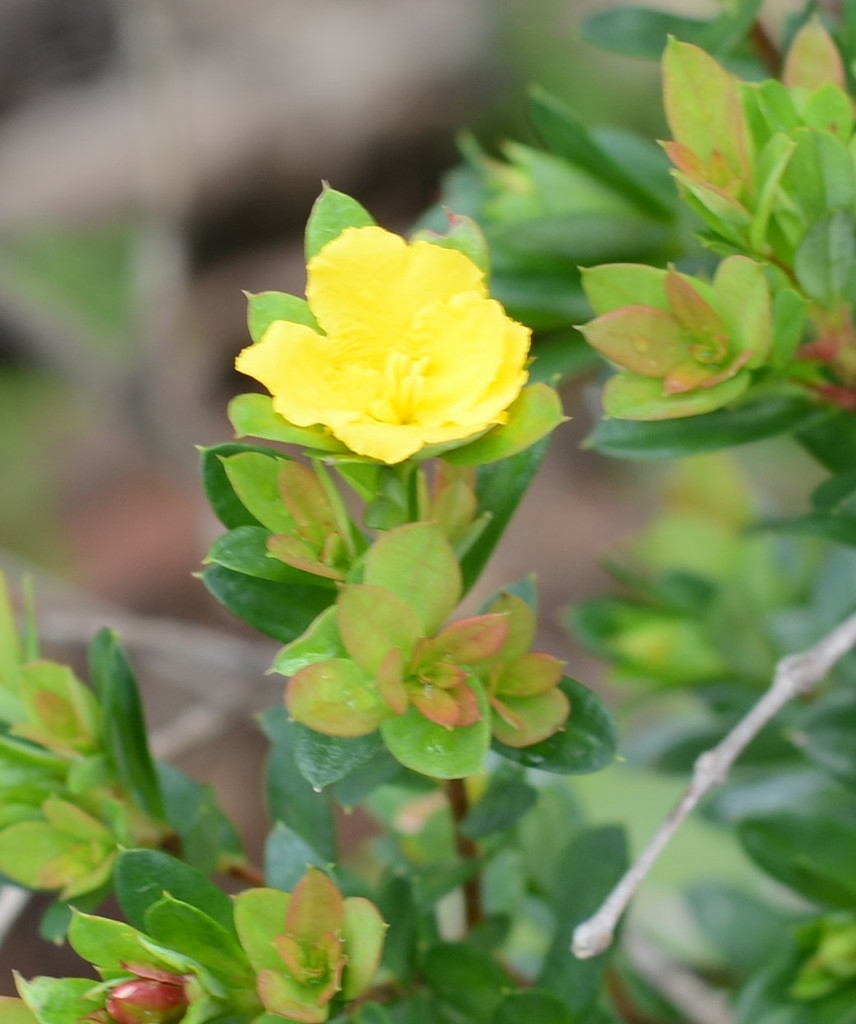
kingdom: Plantae
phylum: Tracheophyta
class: Magnoliopsida
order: Dilleniales
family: Dilleniaceae
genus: Hibbertia
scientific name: Hibbertia nitida
